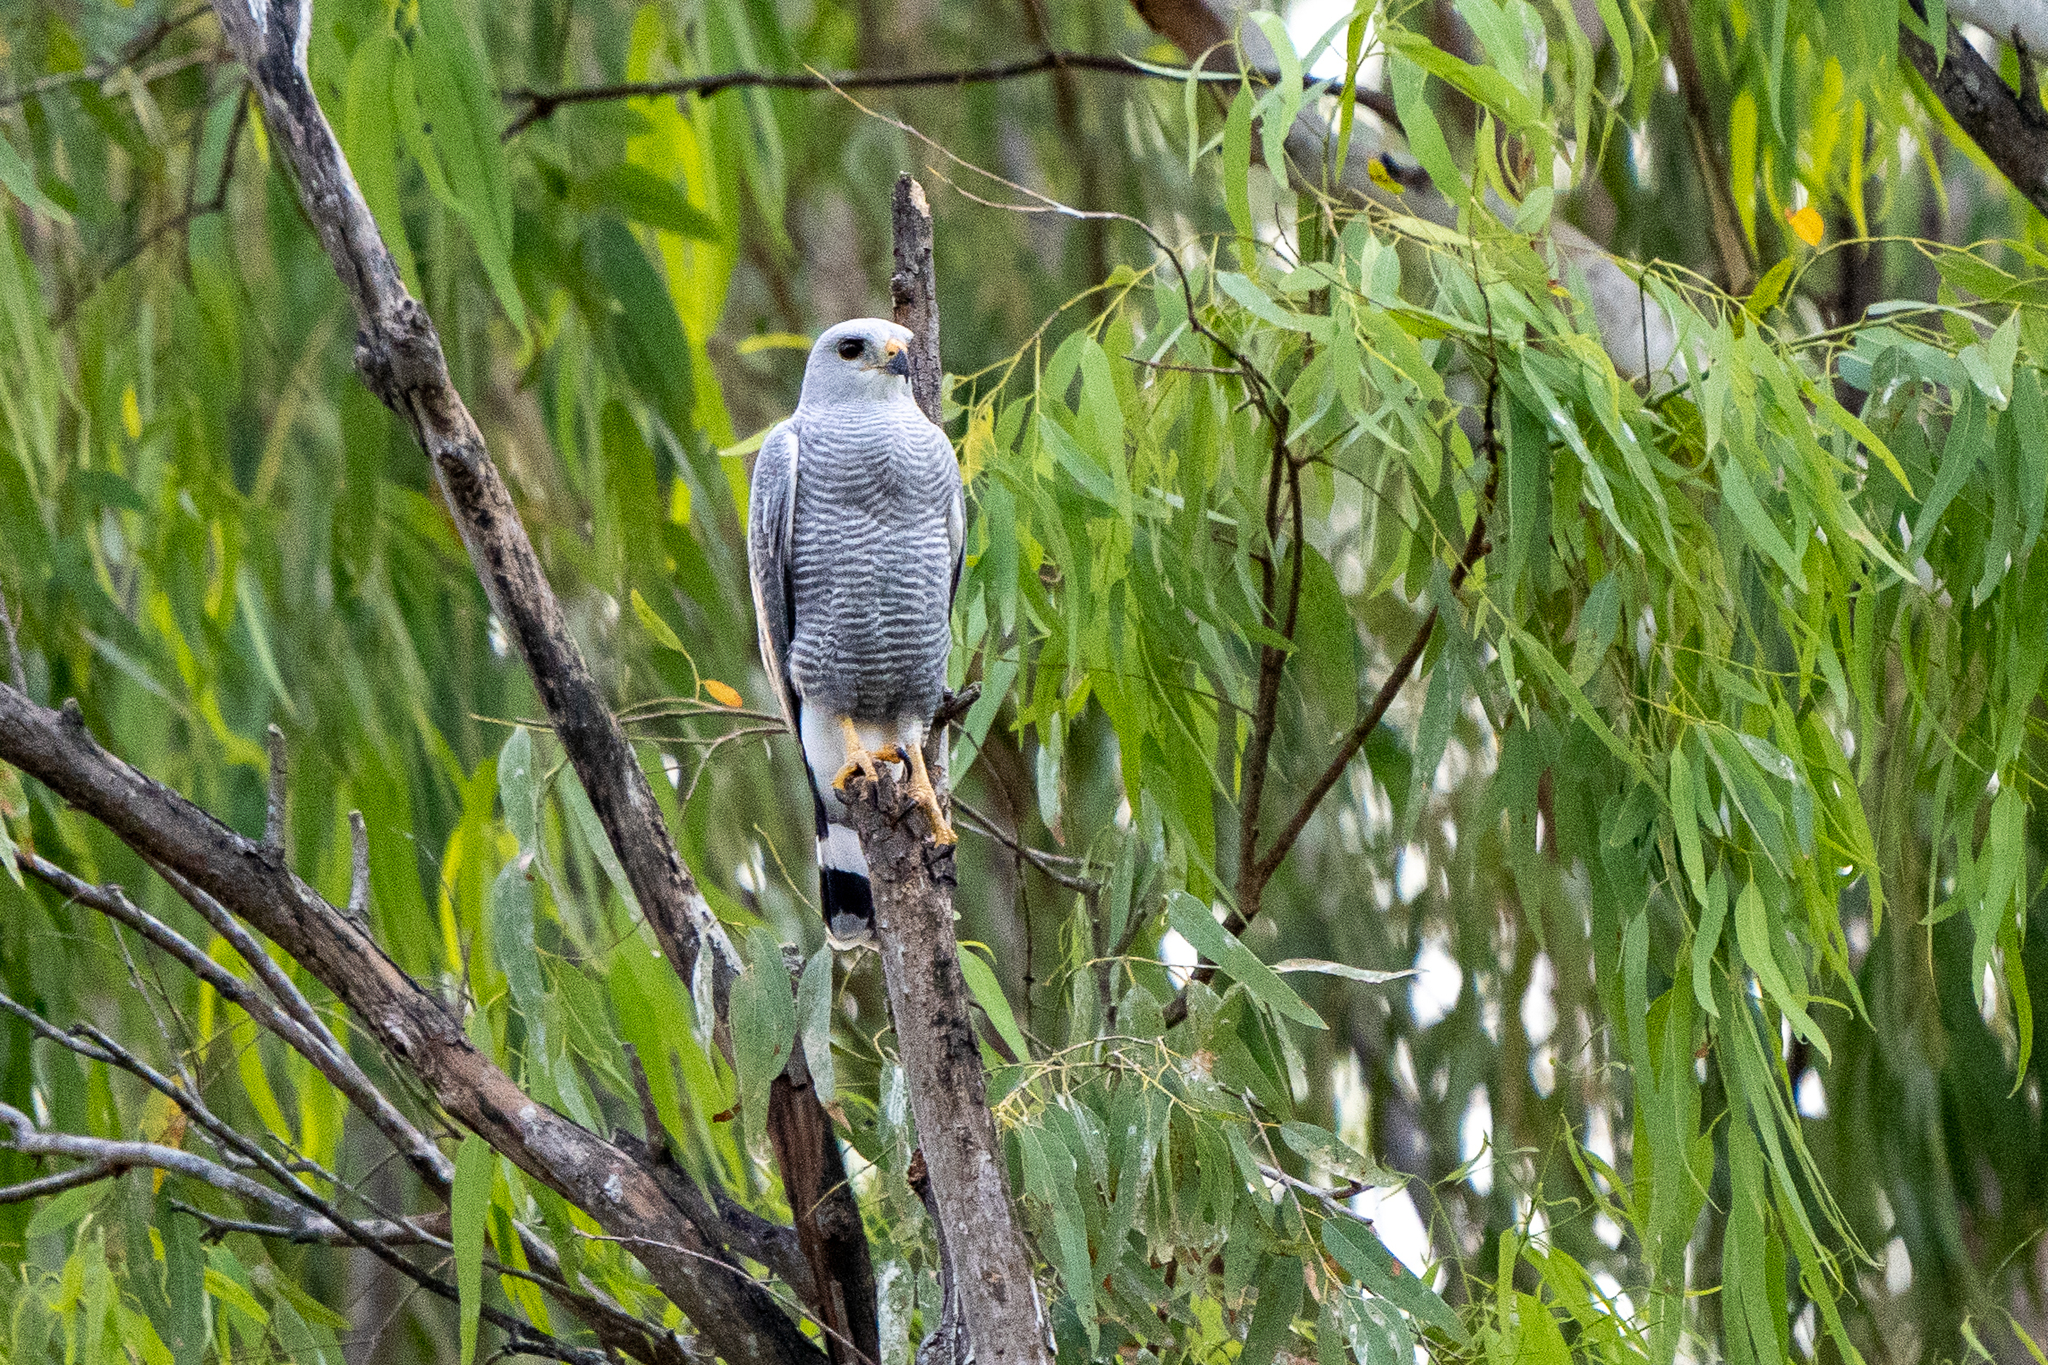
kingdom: Animalia
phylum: Chordata
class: Aves
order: Accipitriformes
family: Accipitridae
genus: Buteo
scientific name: Buteo nitidus
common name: Grey-lined hawk
